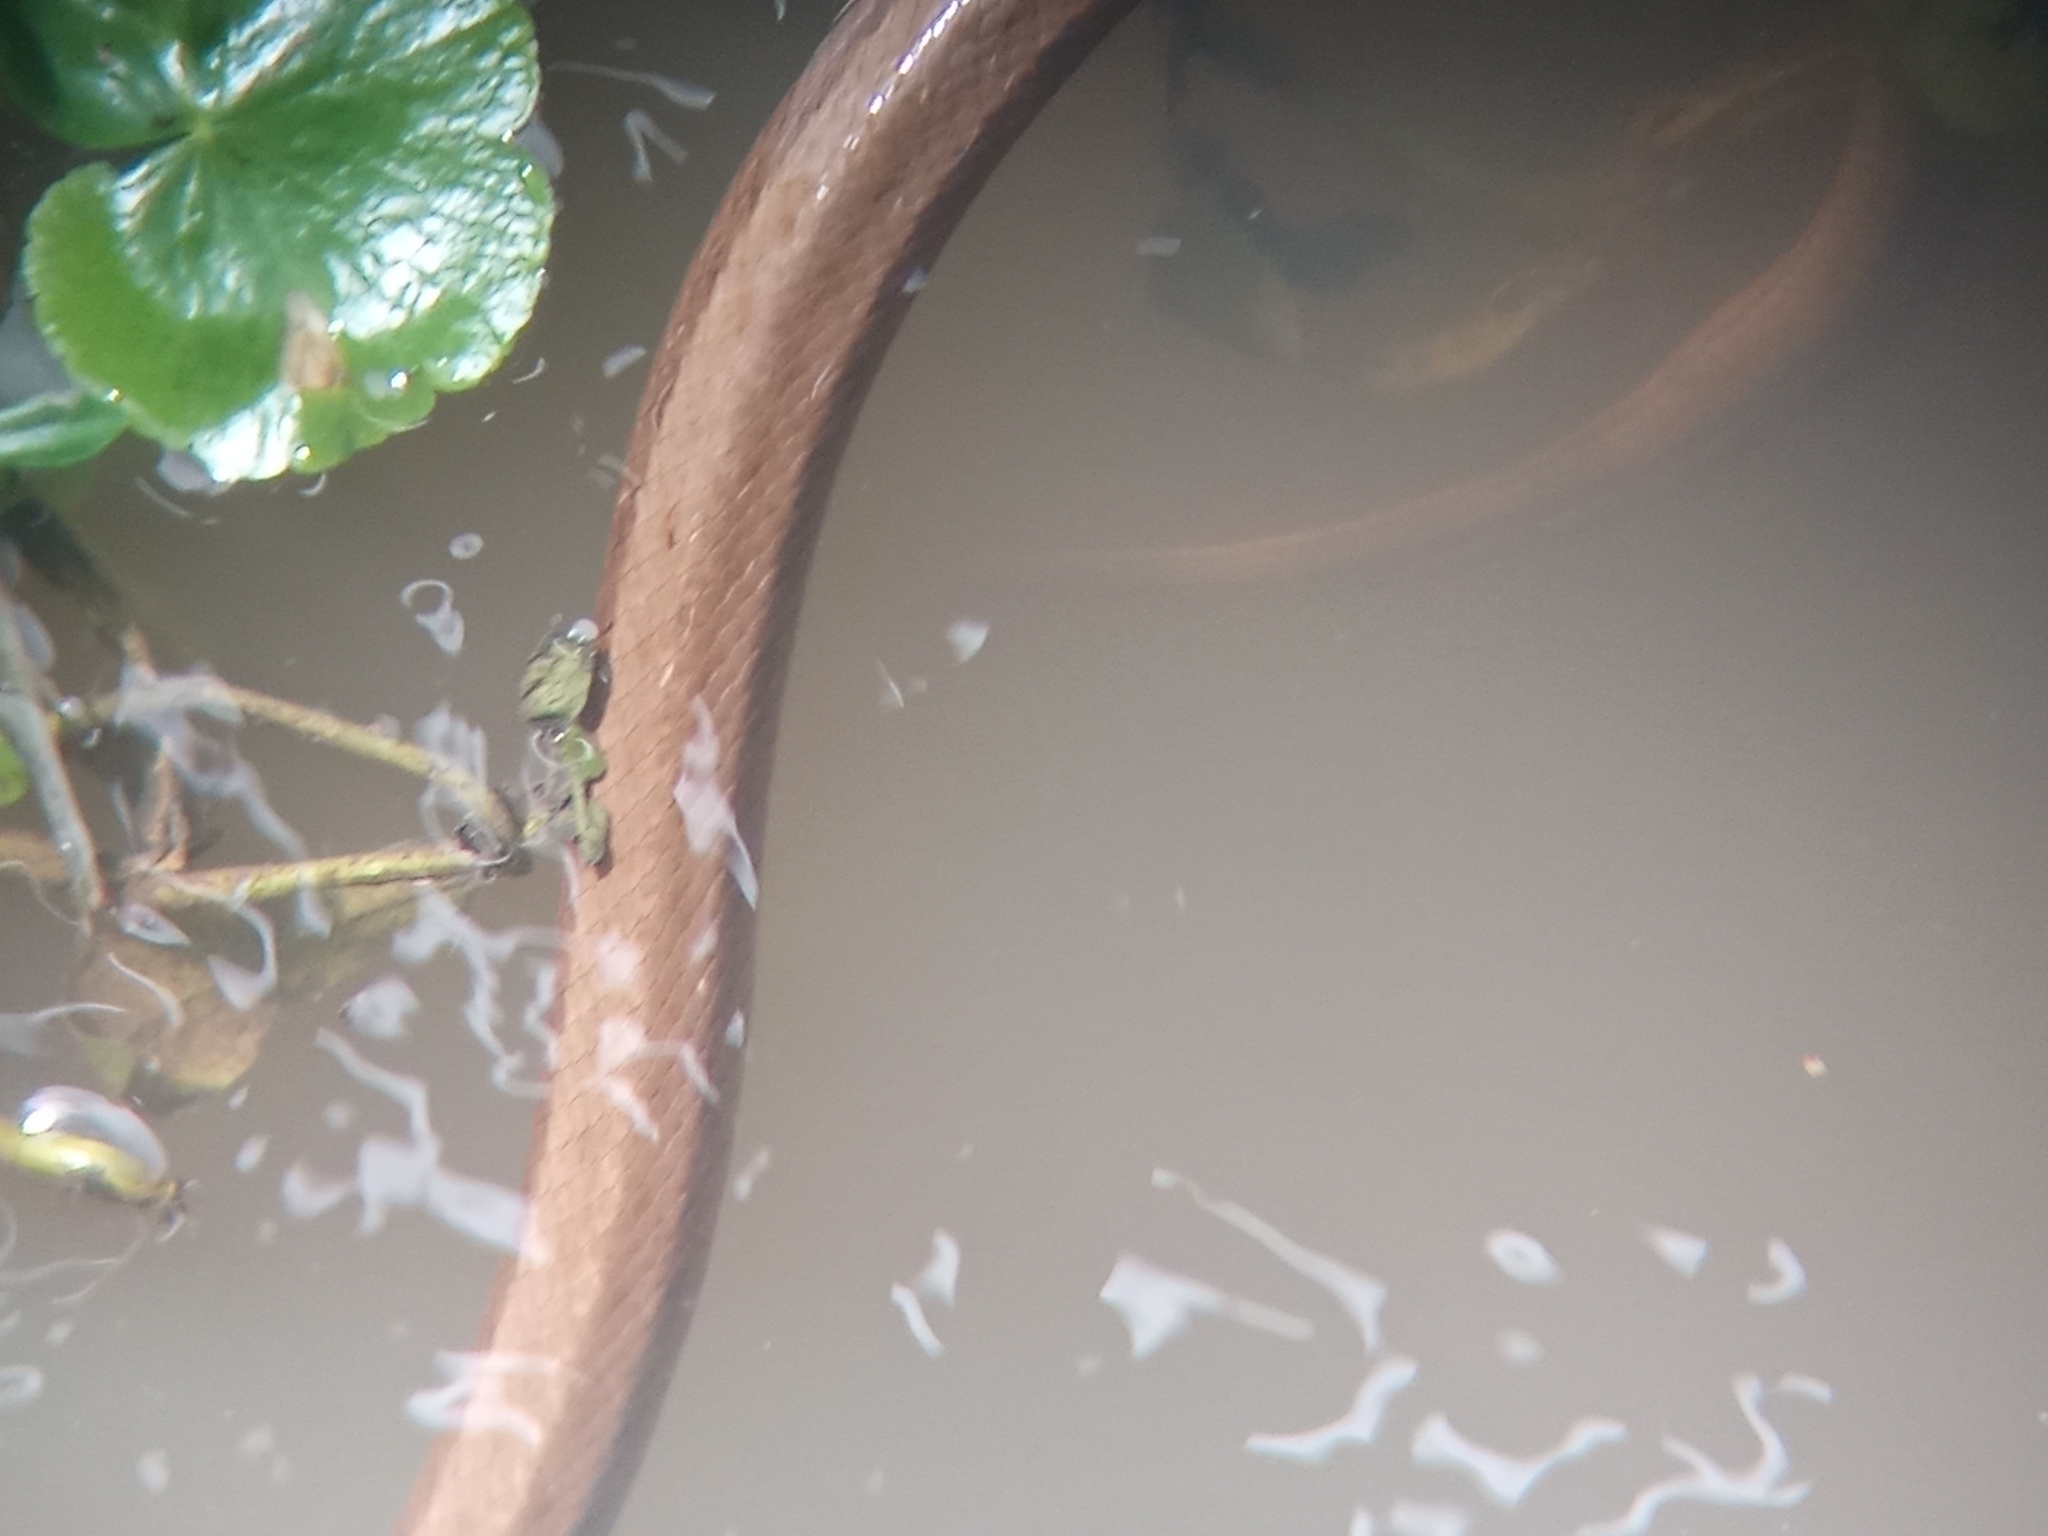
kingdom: Animalia
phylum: Chordata
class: Squamata
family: Colubridae
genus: Mesotes
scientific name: Mesotes
